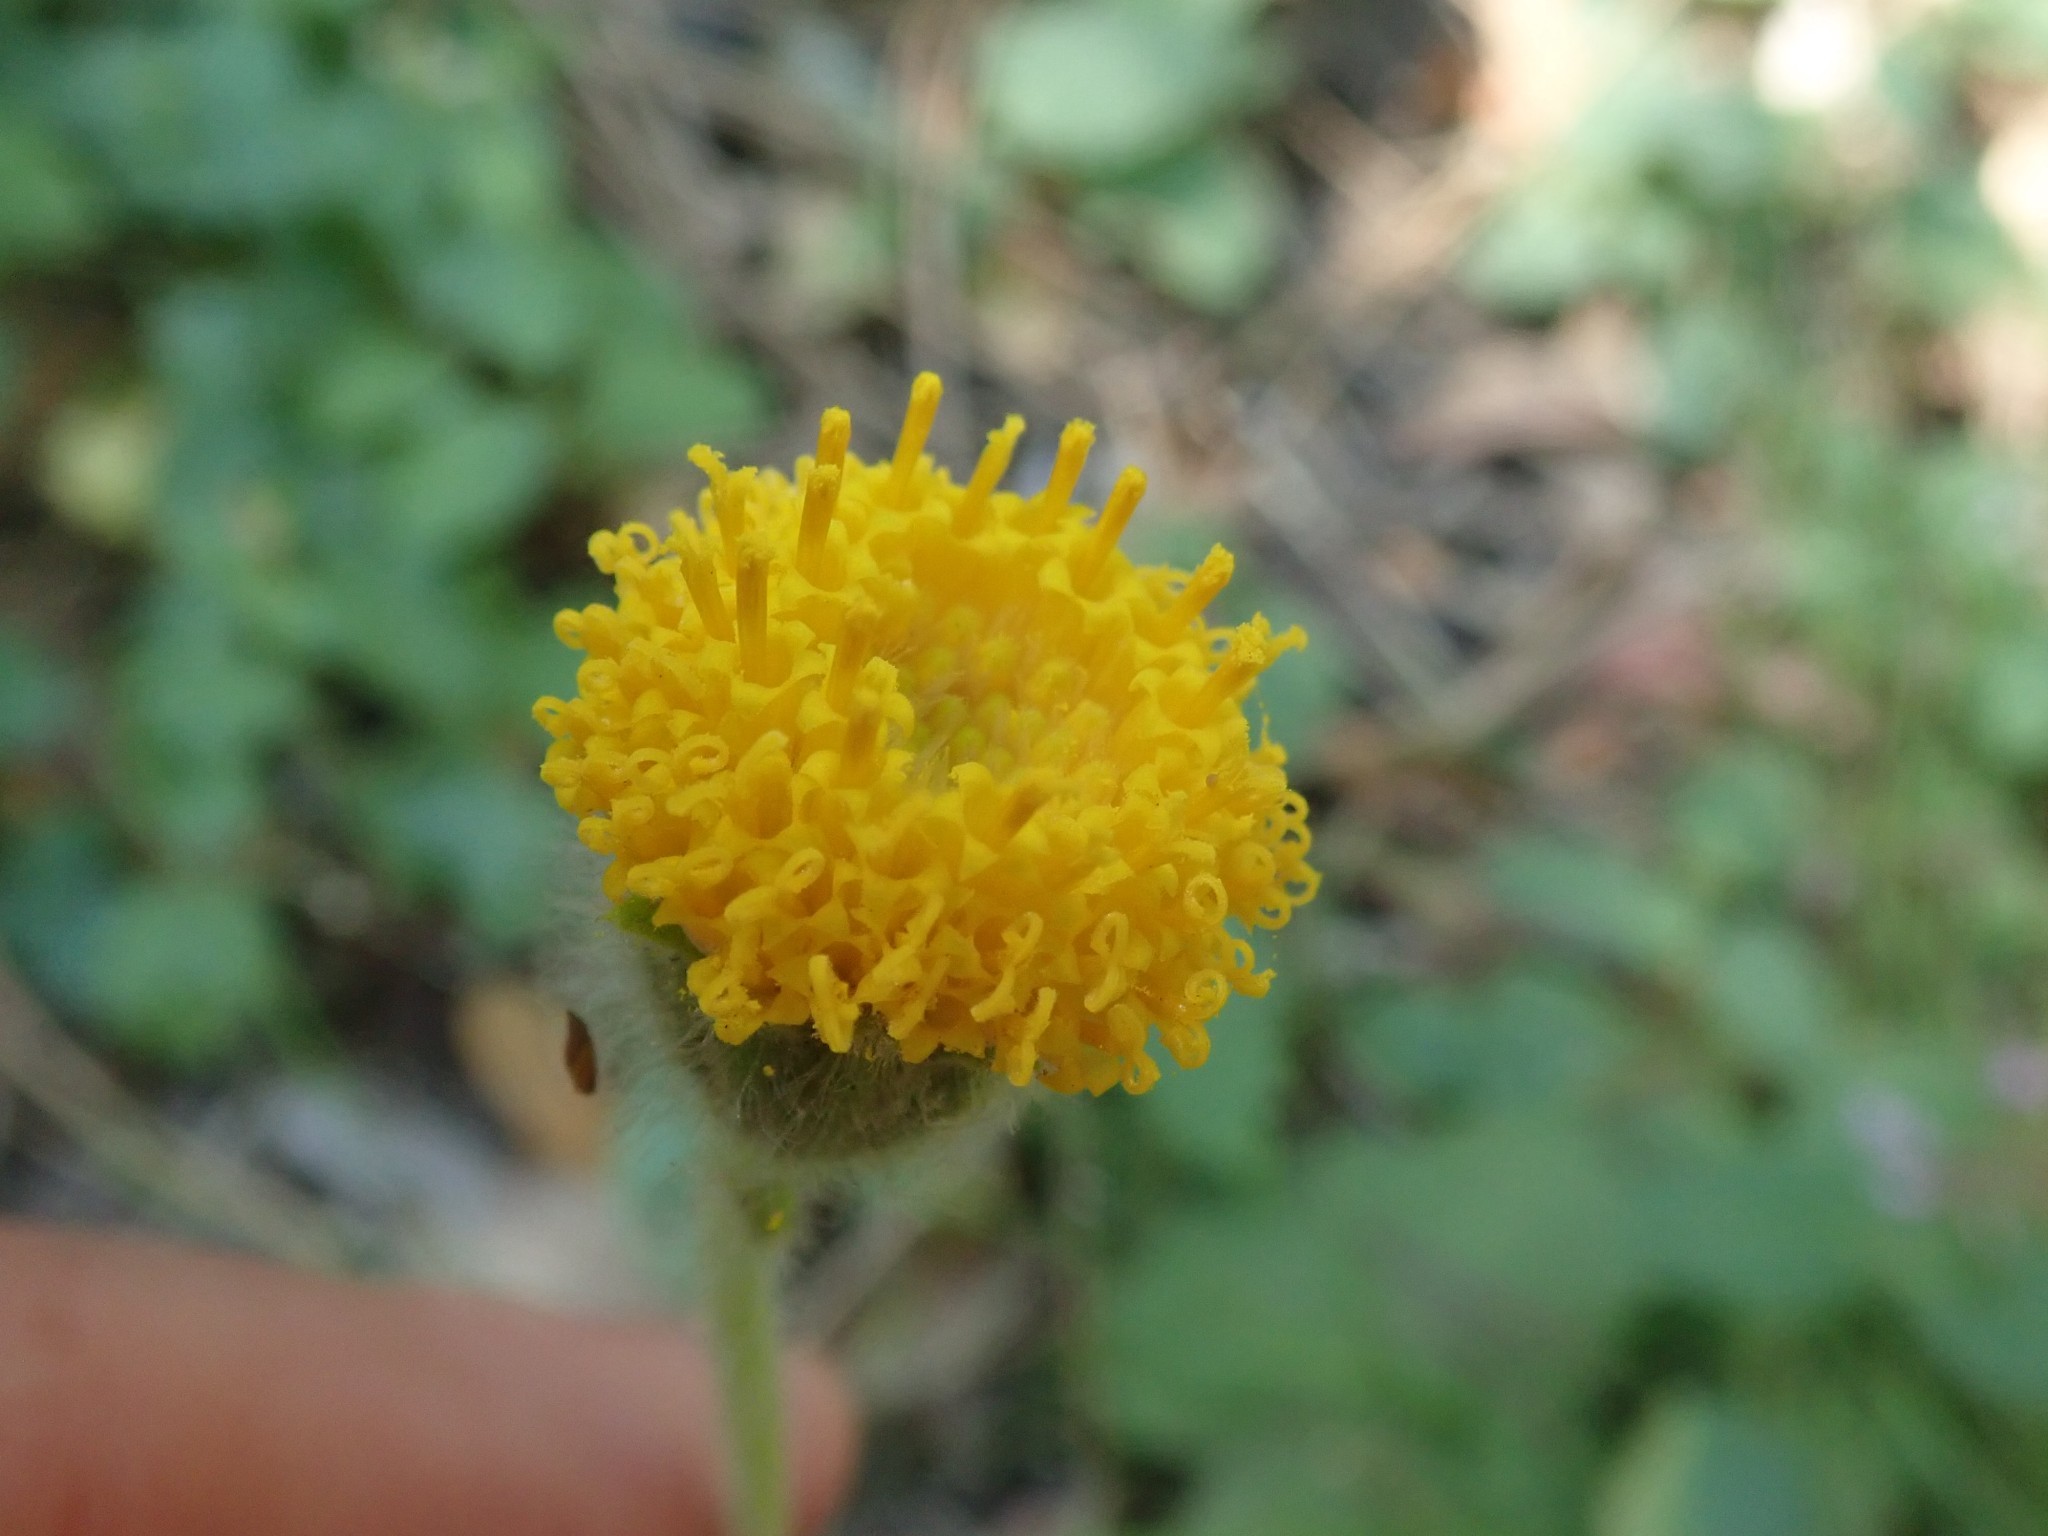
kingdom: Plantae
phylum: Tracheophyta
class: Magnoliopsida
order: Asterales
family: Asteraceae
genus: Arnica
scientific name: Arnica discoidea
